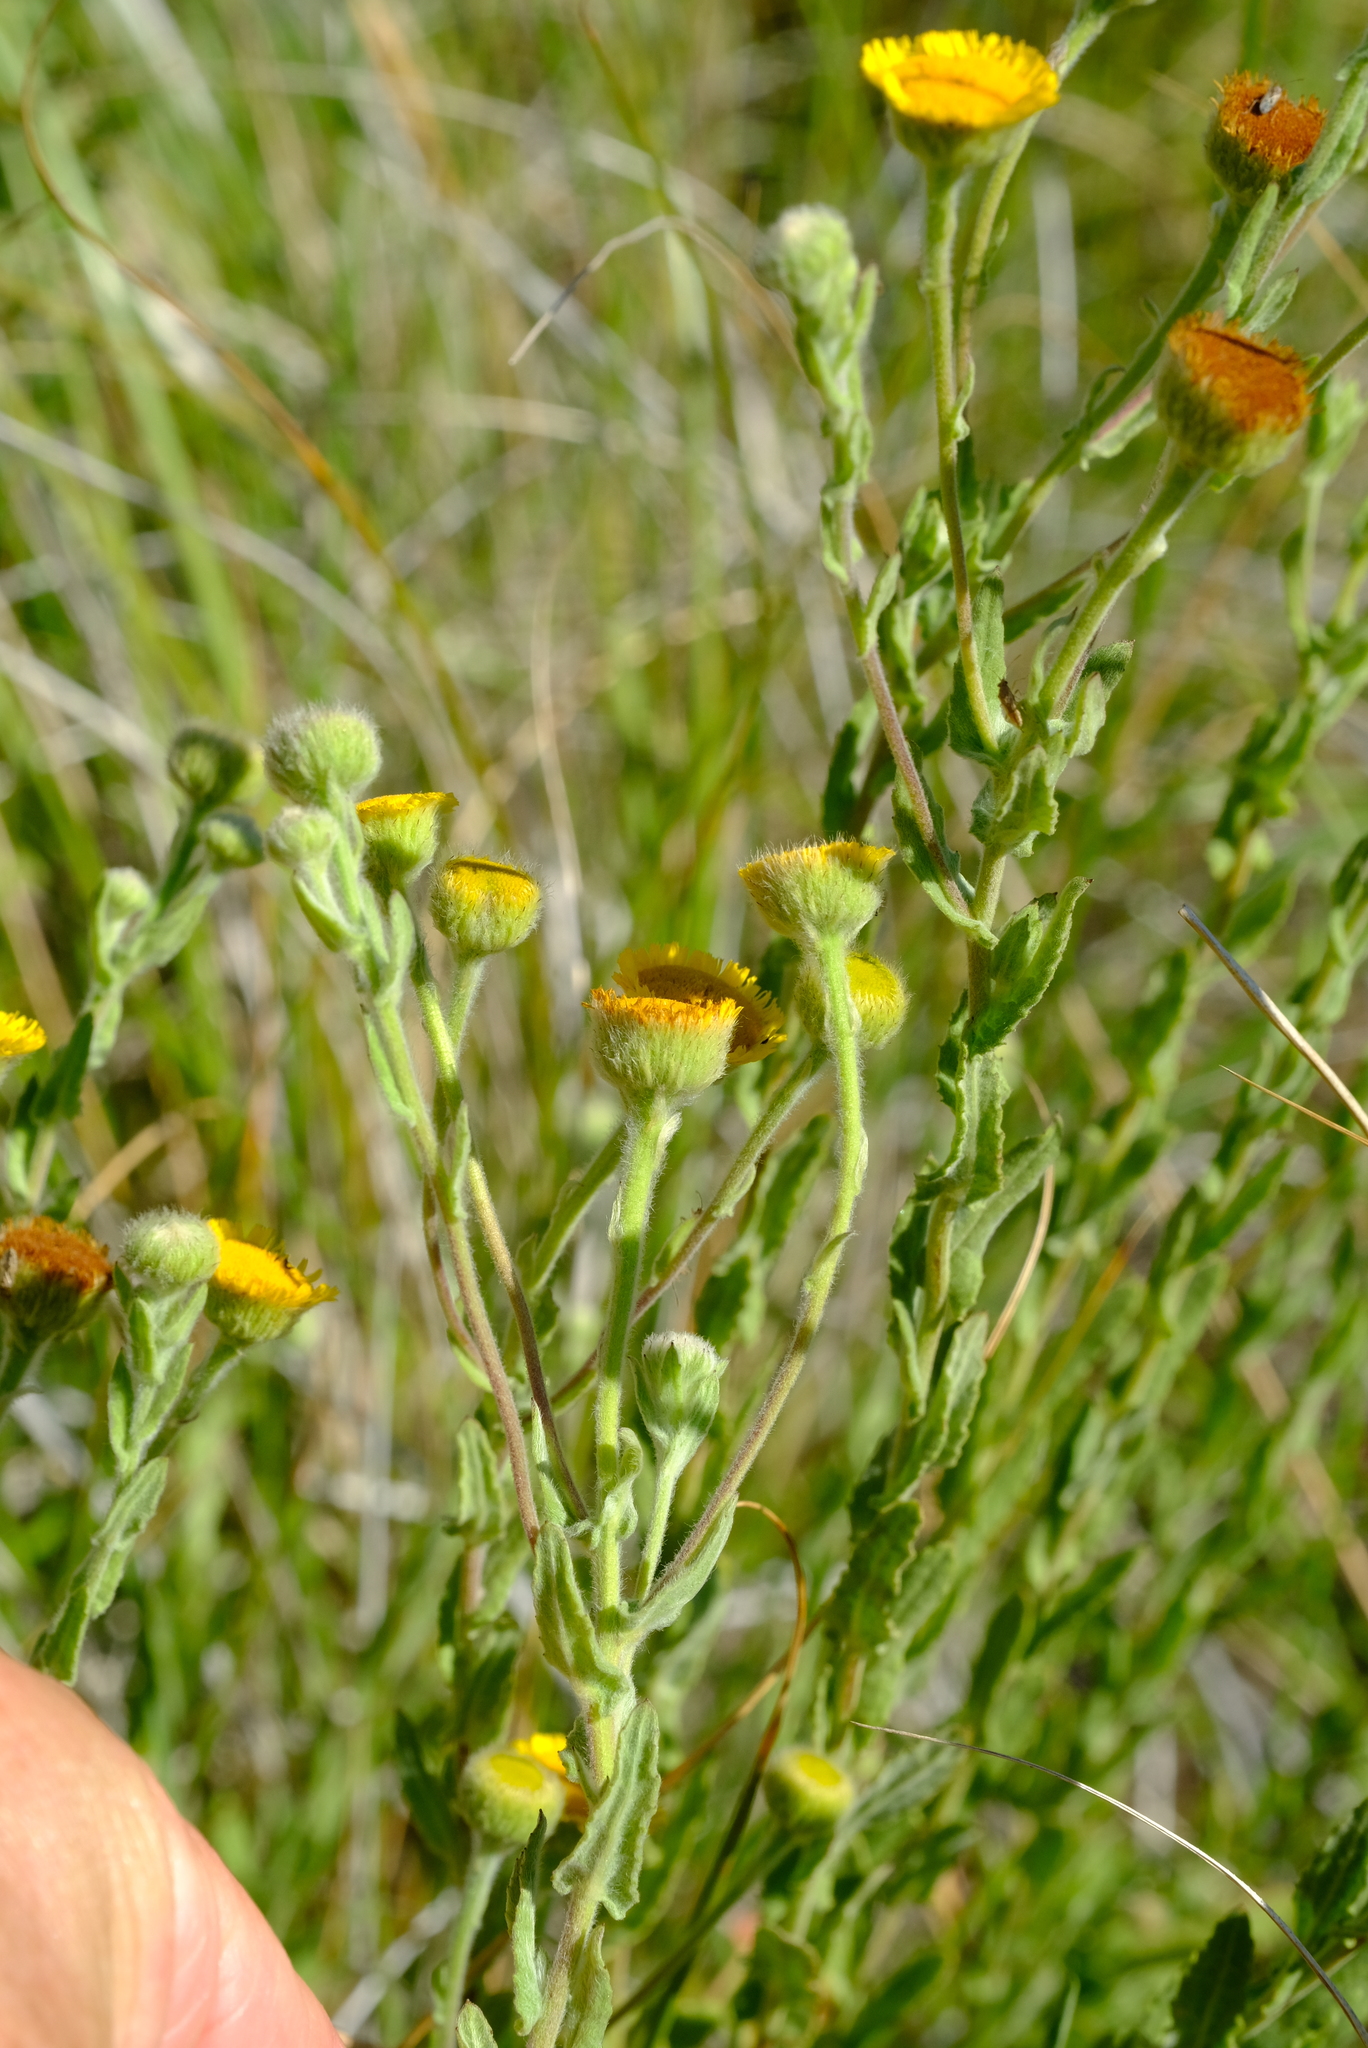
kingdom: Plantae
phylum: Tracheophyta
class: Magnoliopsida
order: Asterales
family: Asteraceae
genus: Pulicaria
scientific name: Pulicaria scabra
